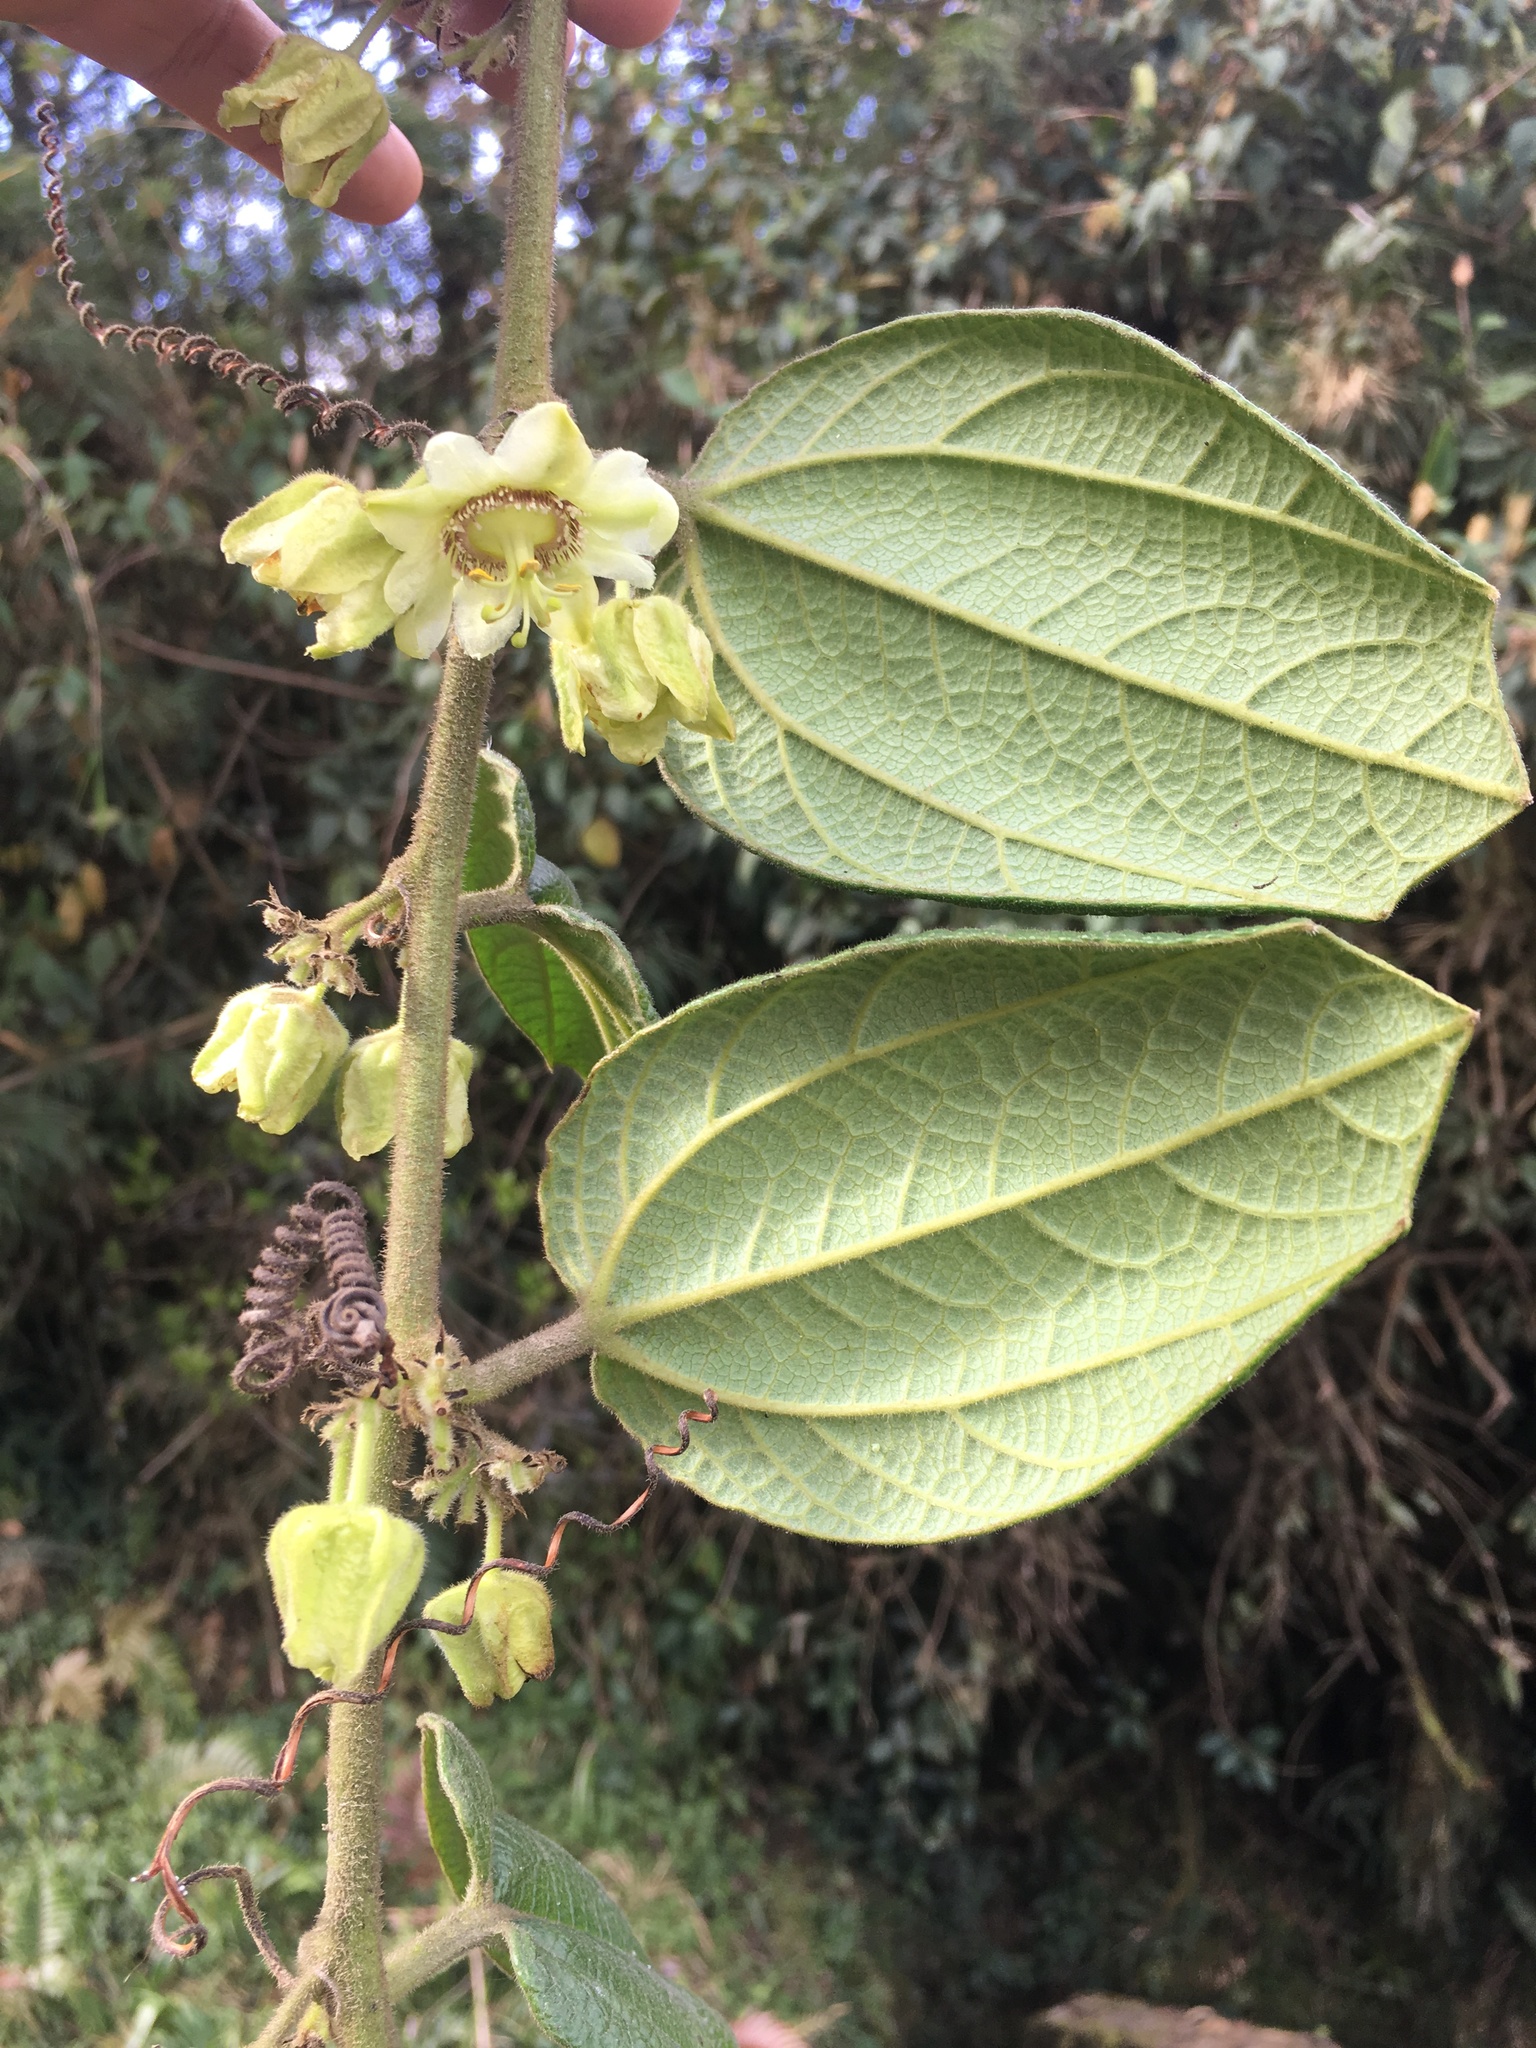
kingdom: Plantae
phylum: Tracheophyta
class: Magnoliopsida
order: Malpighiales
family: Passifloraceae
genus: Passiflora
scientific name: Passiflora ursina
